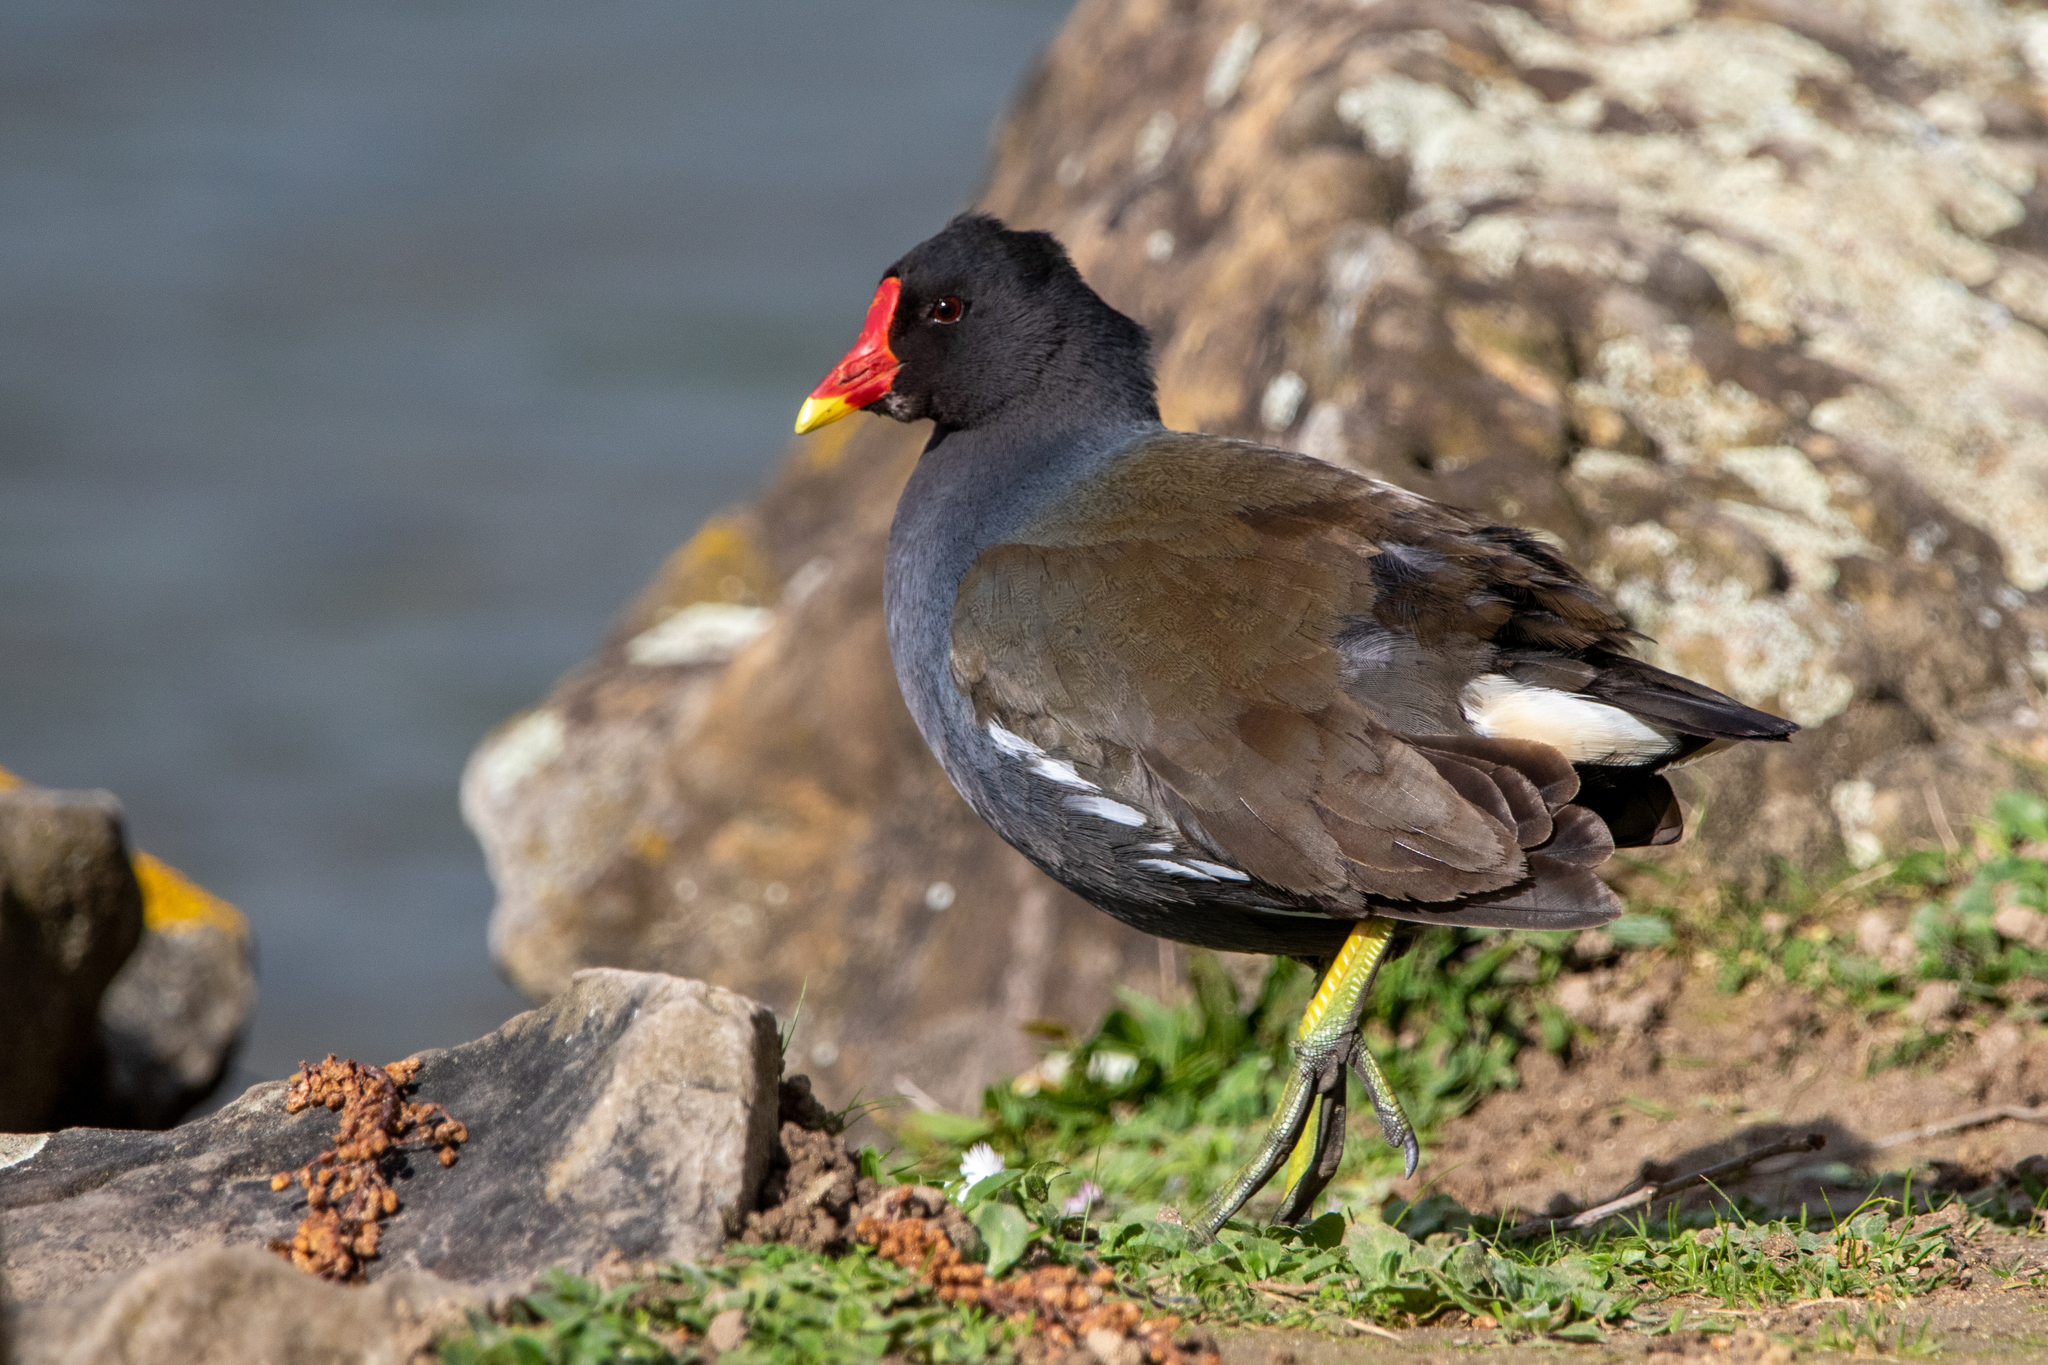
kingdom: Animalia
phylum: Chordata
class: Aves
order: Gruiformes
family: Rallidae
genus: Gallinula
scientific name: Gallinula chloropus
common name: Common moorhen
